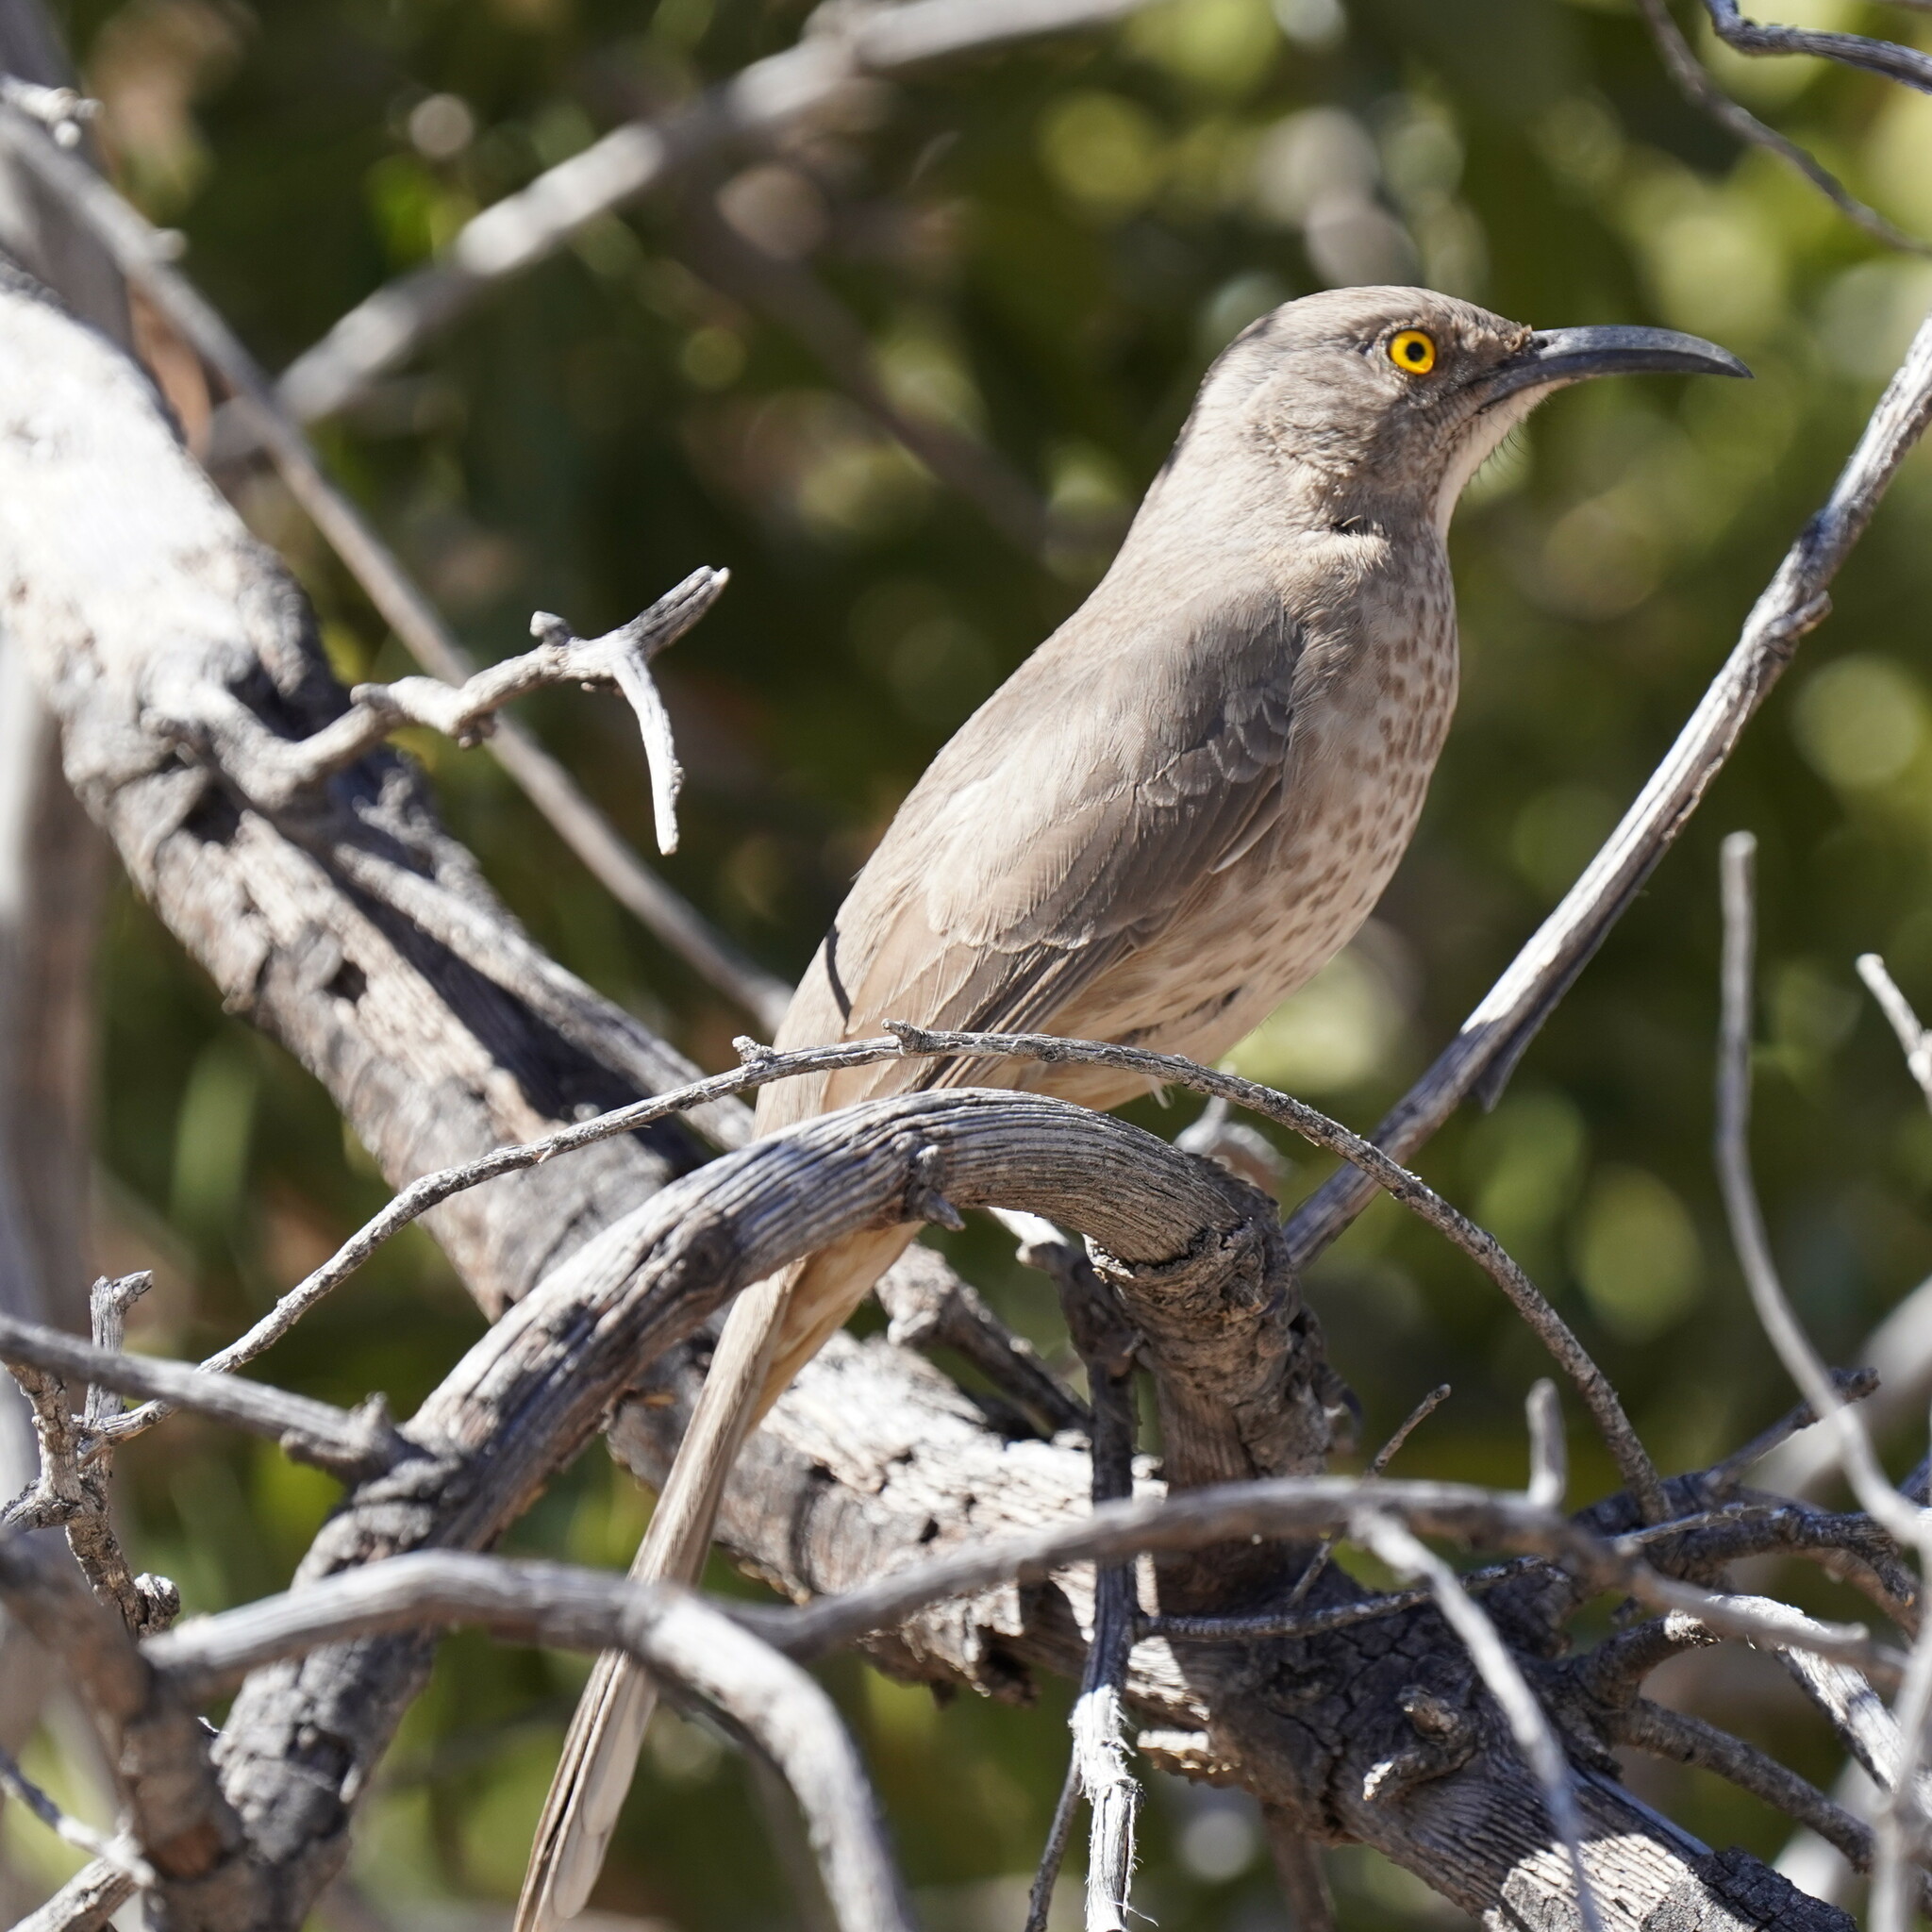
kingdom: Animalia
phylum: Chordata
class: Aves
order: Passeriformes
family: Mimidae
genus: Toxostoma
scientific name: Toxostoma curvirostre
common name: Curve-billed thrasher
